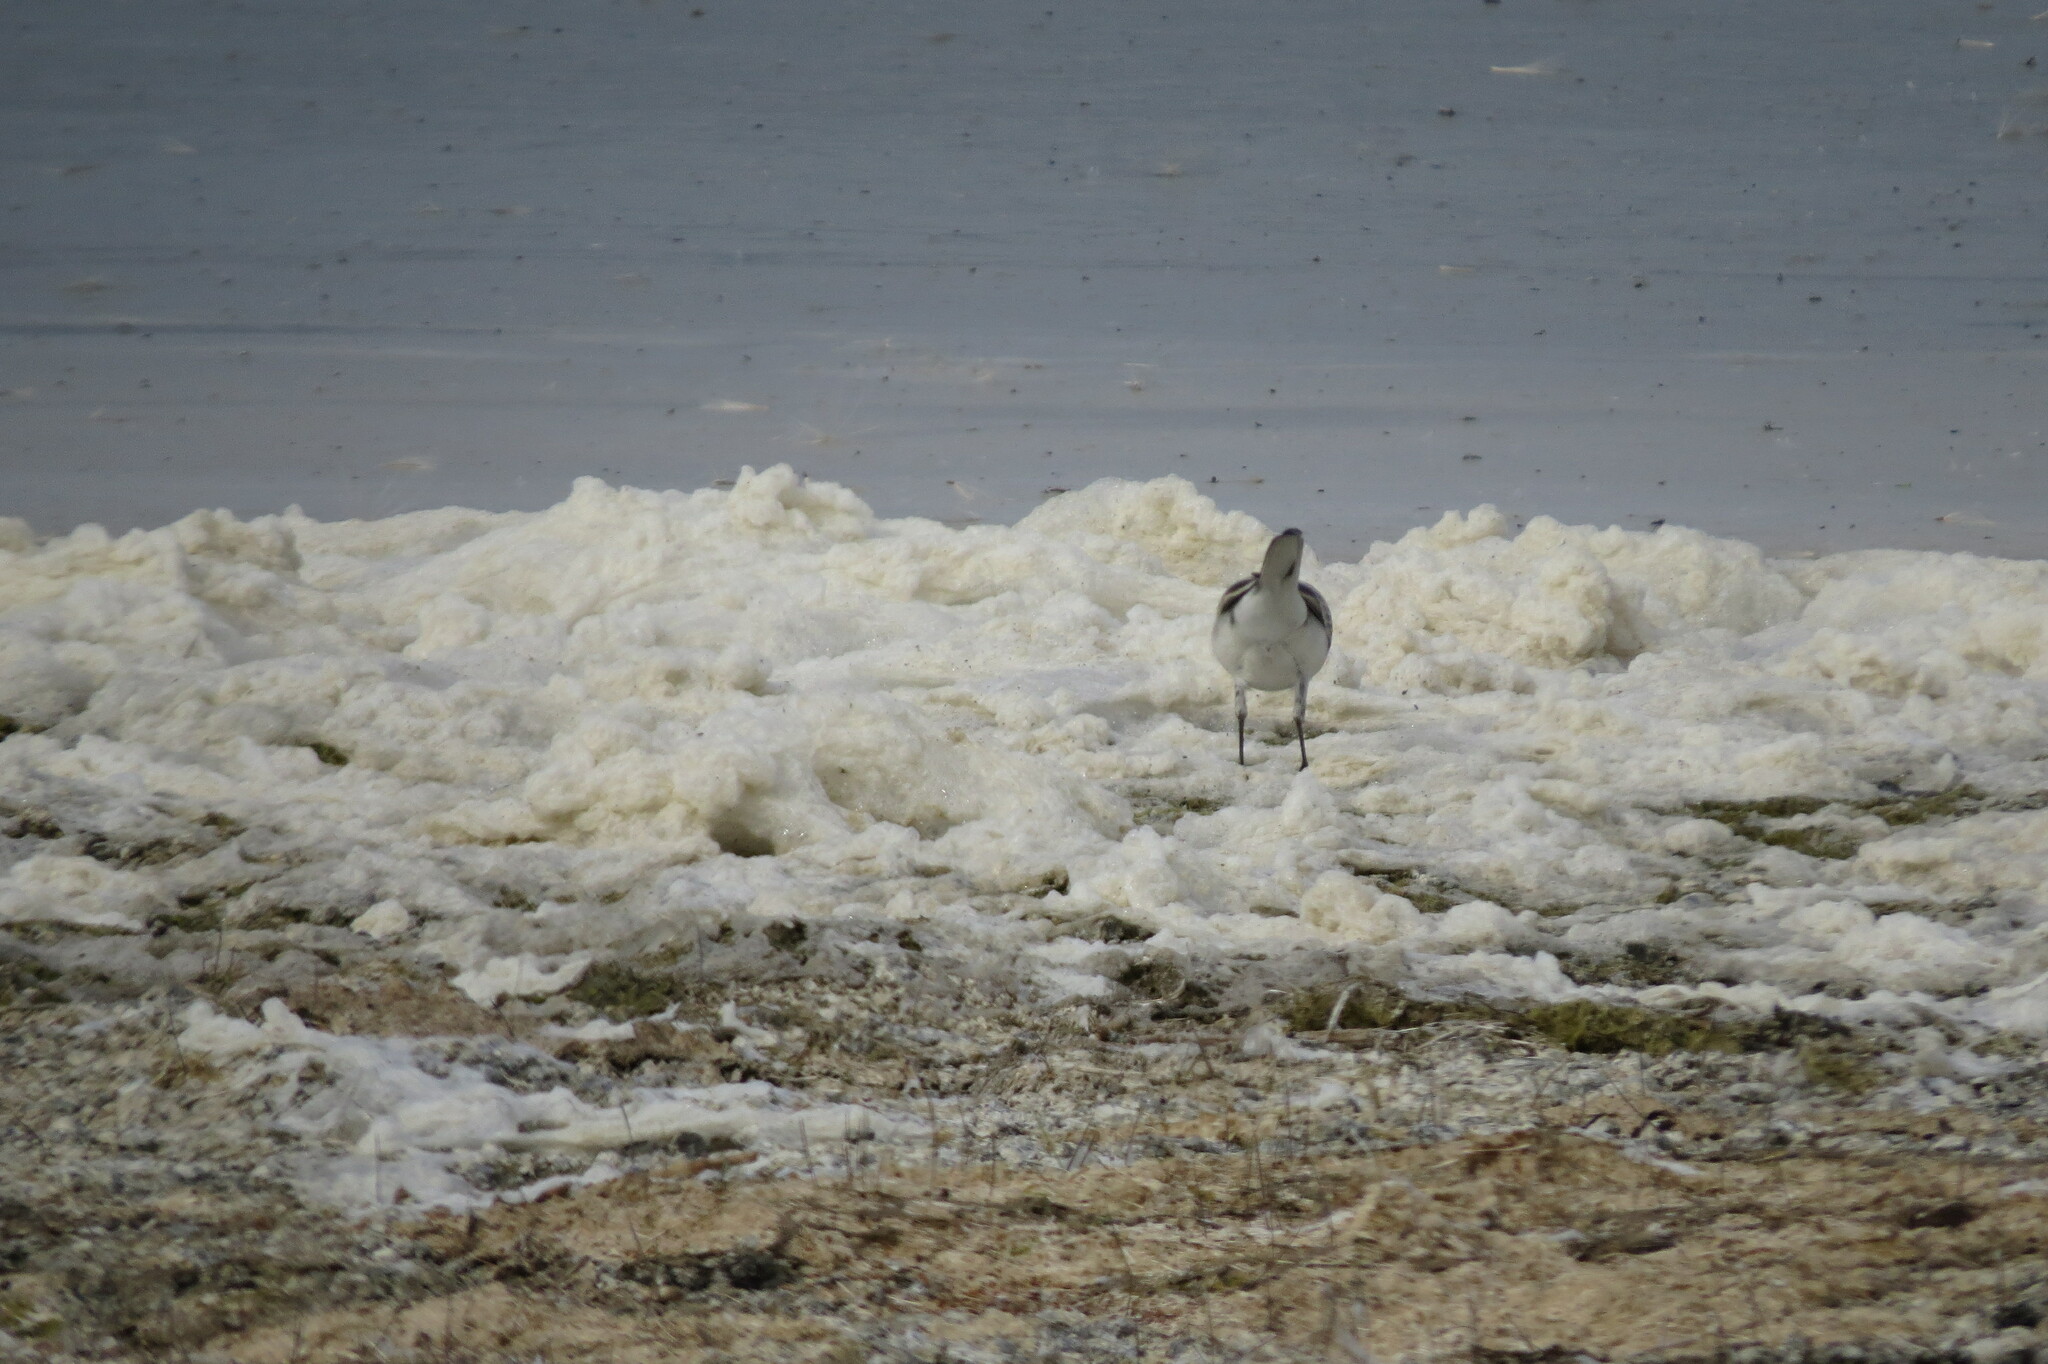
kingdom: Animalia
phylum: Chordata
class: Aves
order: Passeriformes
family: Motacillidae
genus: Motacilla
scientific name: Motacilla alba
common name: White wagtail
